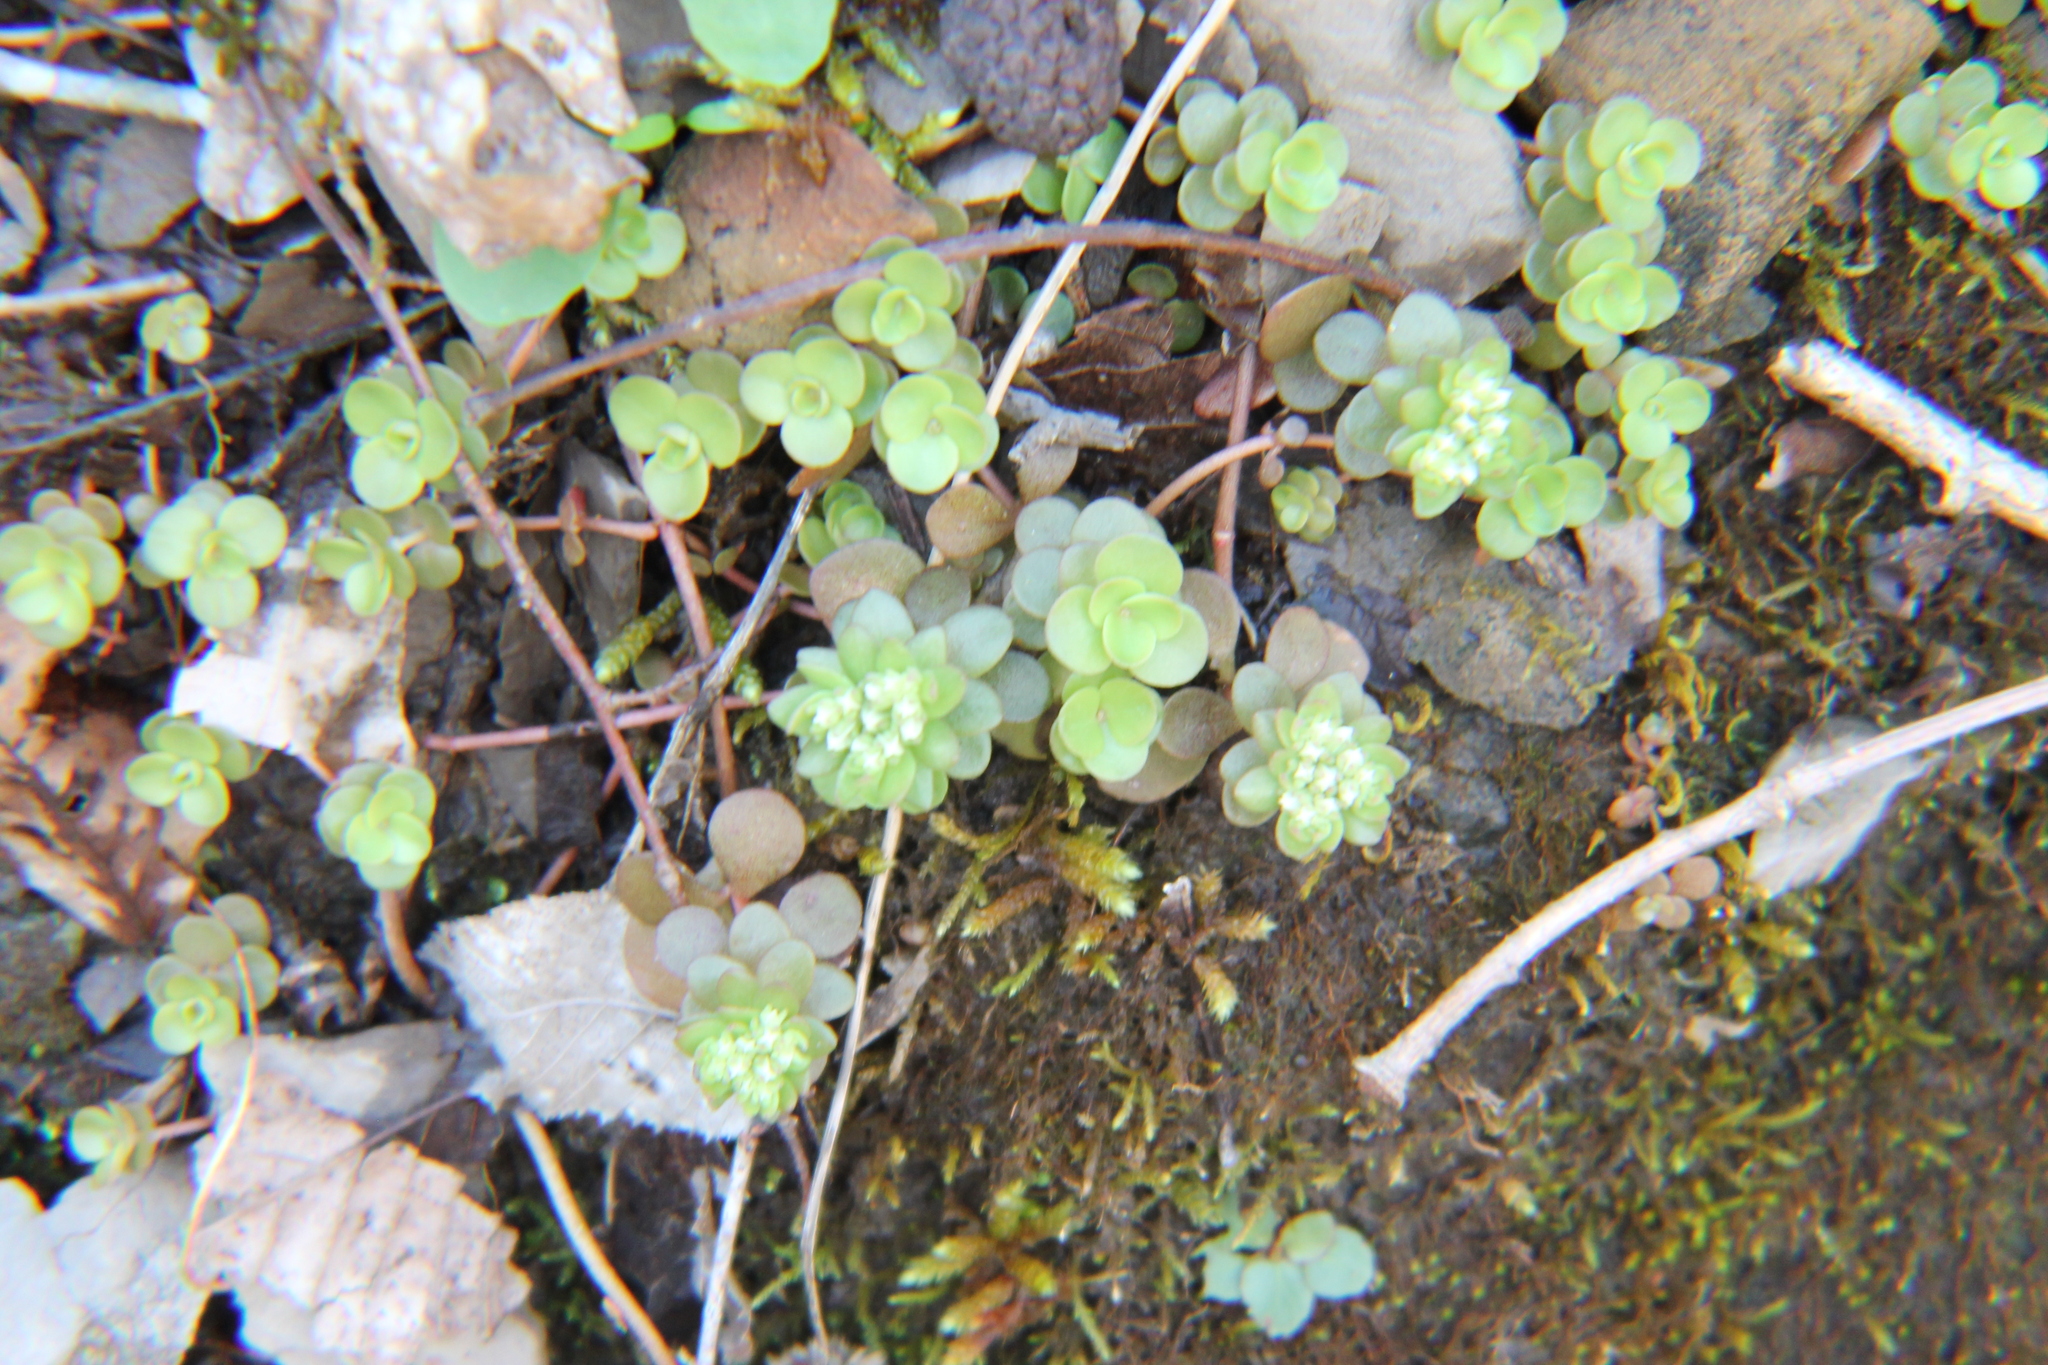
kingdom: Plantae
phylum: Tracheophyta
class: Magnoliopsida
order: Saxifragales
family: Crassulaceae
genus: Sedum
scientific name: Sedum ternatum
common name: Wild stonecrop
